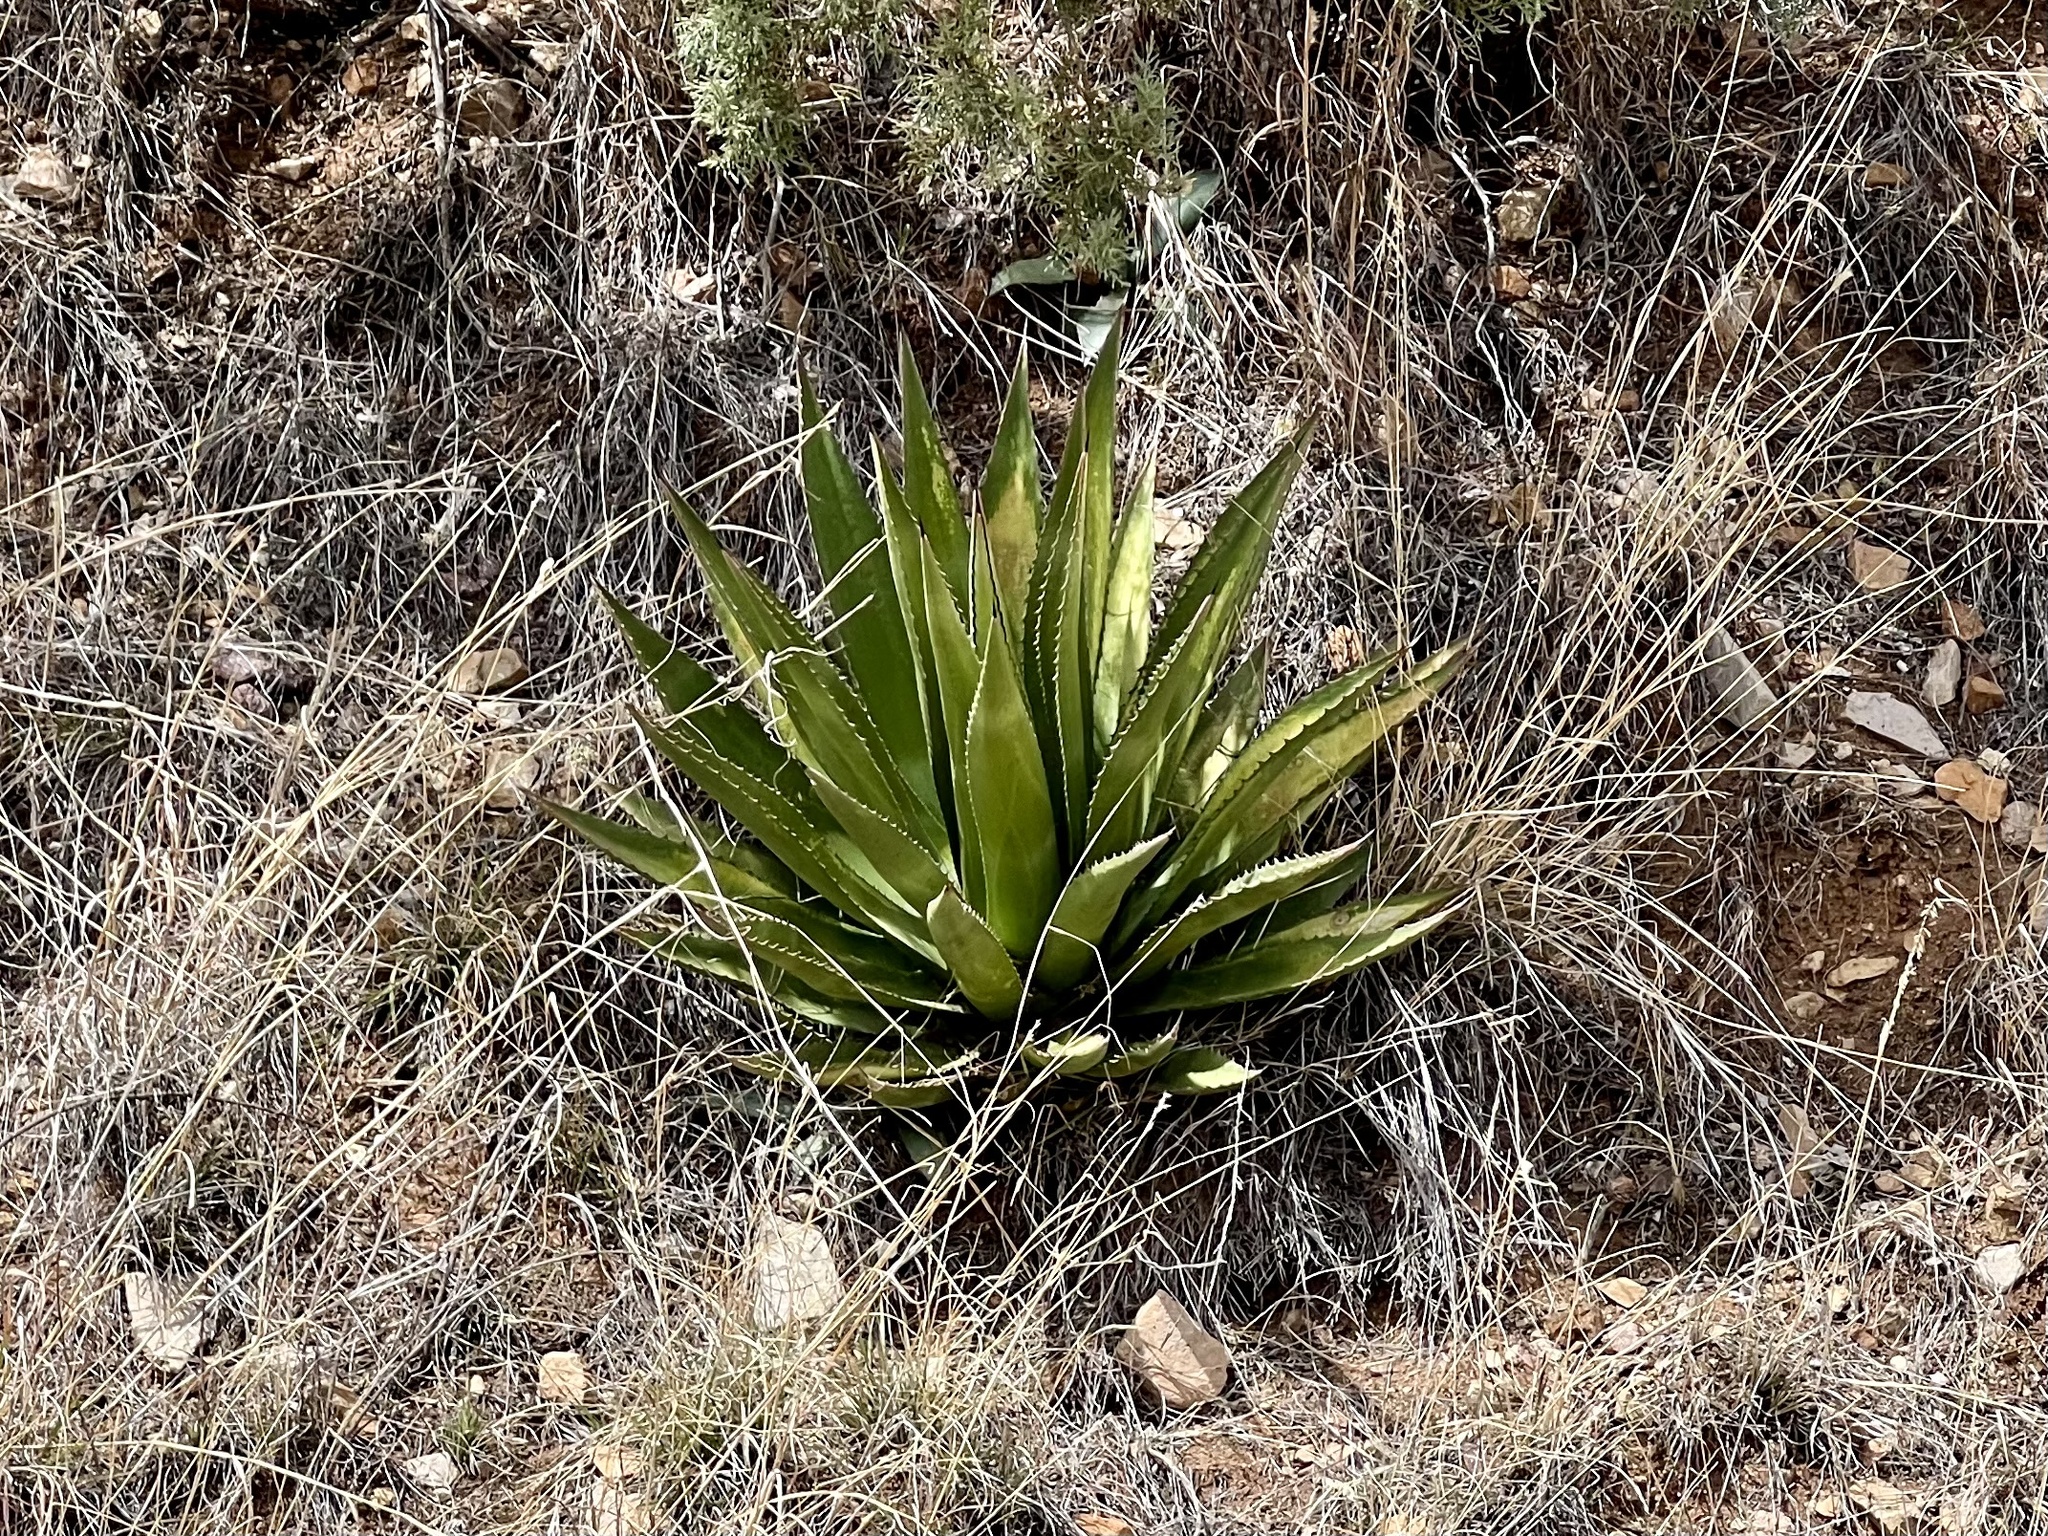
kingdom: Plantae
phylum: Tracheophyta
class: Liliopsida
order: Asparagales
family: Asparagaceae
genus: Agave
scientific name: Agave palmeri
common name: Palmer agave
